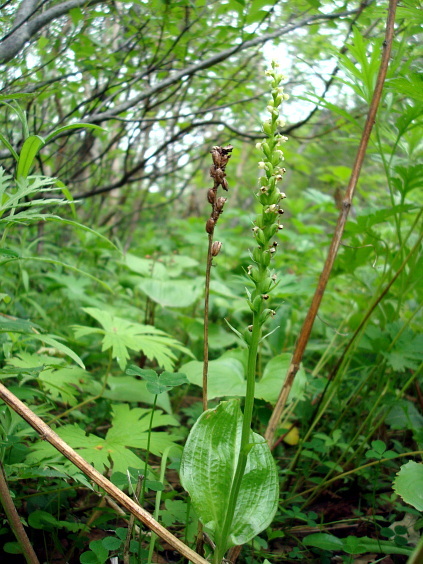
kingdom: Plantae
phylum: Tracheophyta
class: Liliopsida
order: Asparagales
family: Orchidaceae
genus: Platanthera
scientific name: Platanthera chorisiana
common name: Chamisso's orchid
